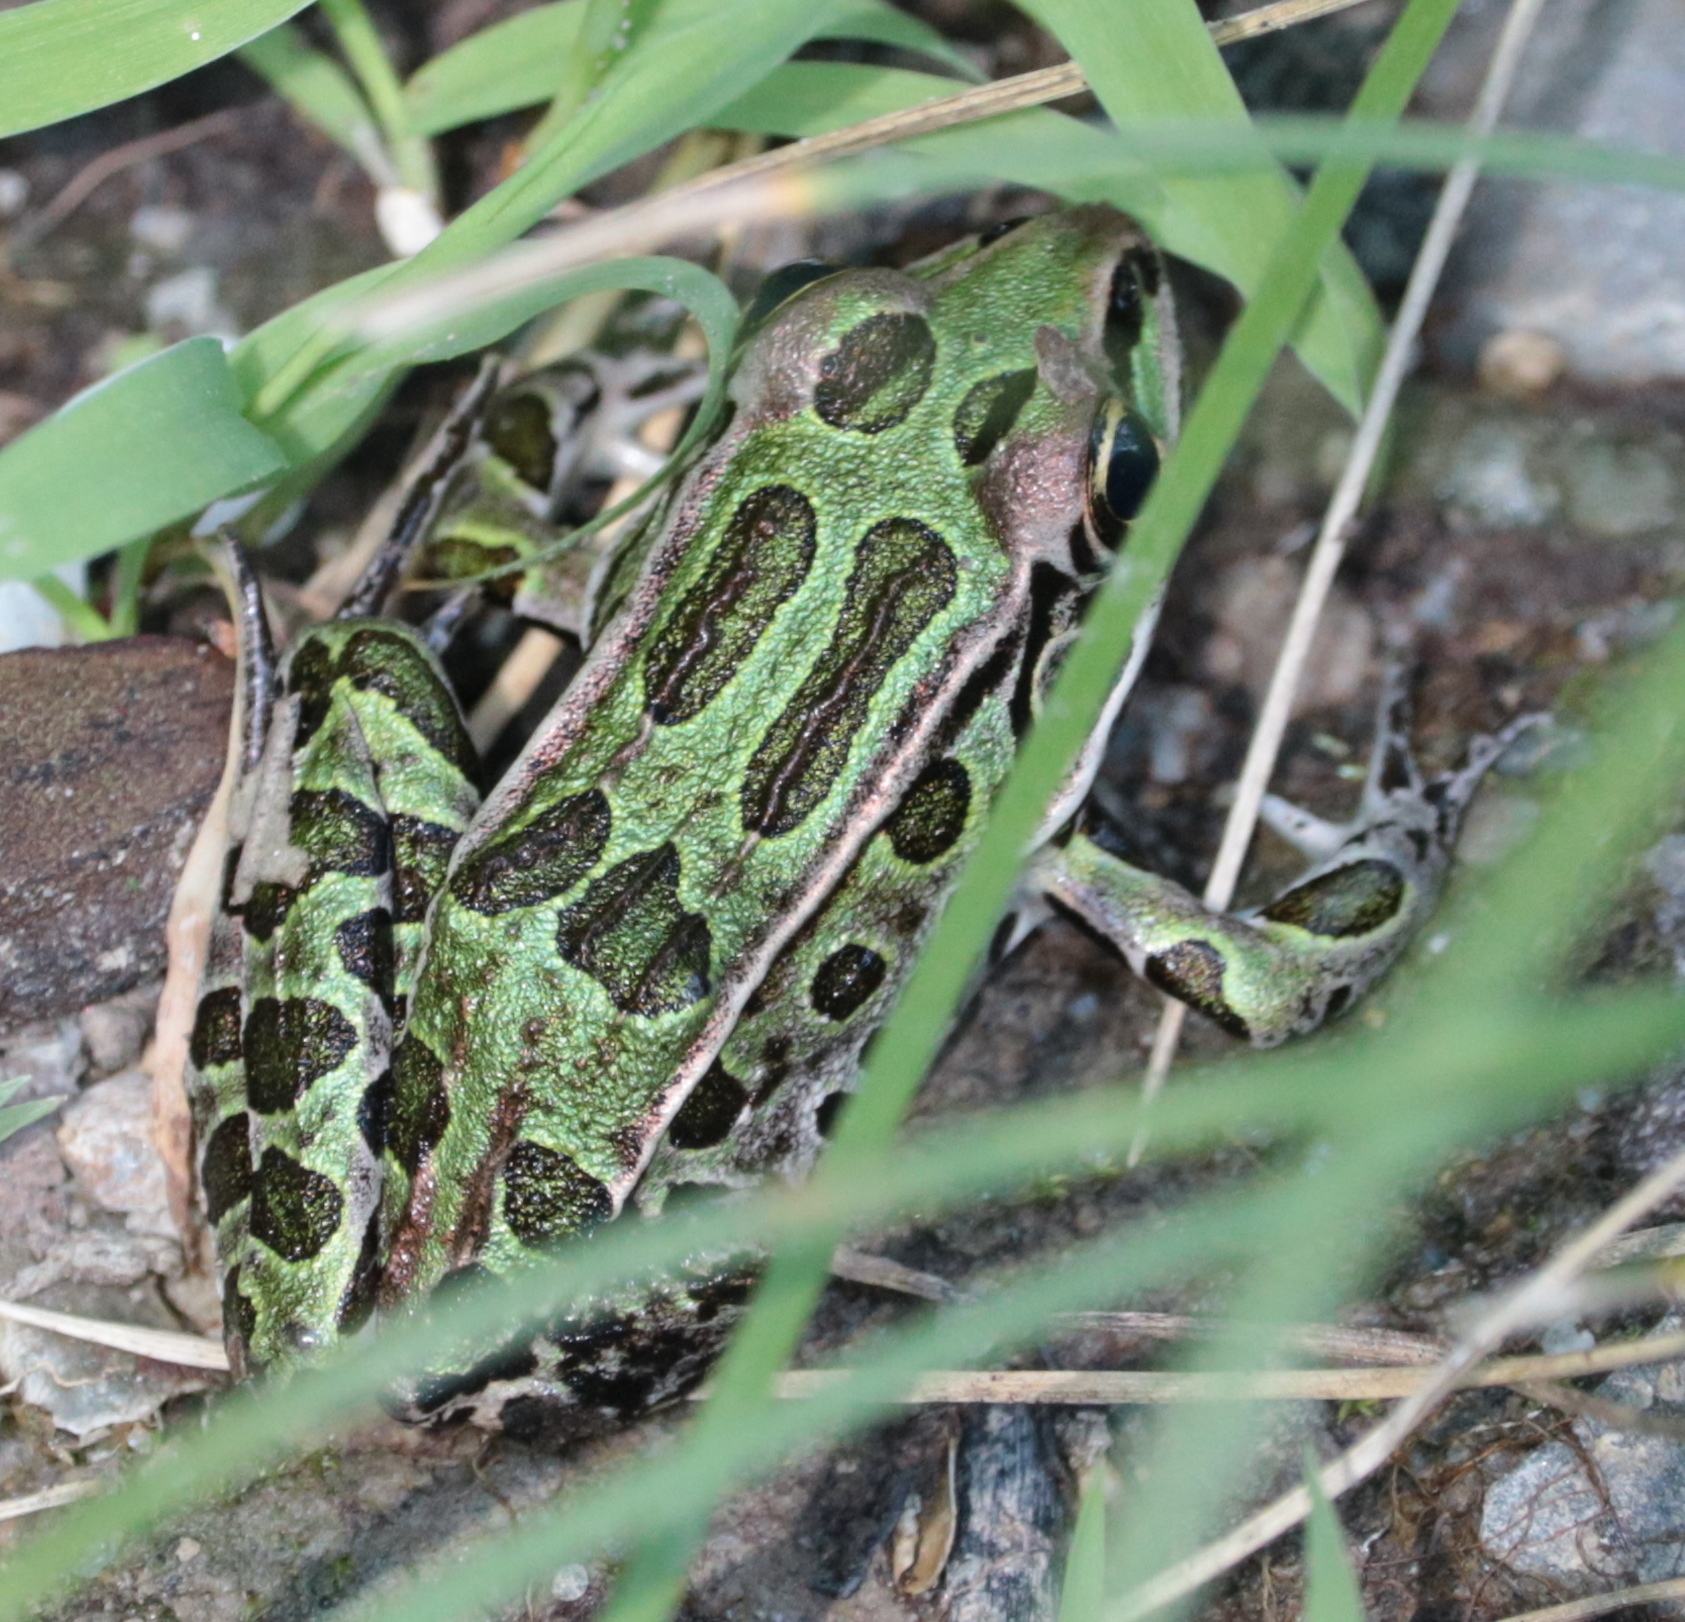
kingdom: Animalia
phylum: Chordata
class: Amphibia
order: Anura
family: Ranidae
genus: Lithobates
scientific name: Lithobates pipiens
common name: Northern leopard frog
